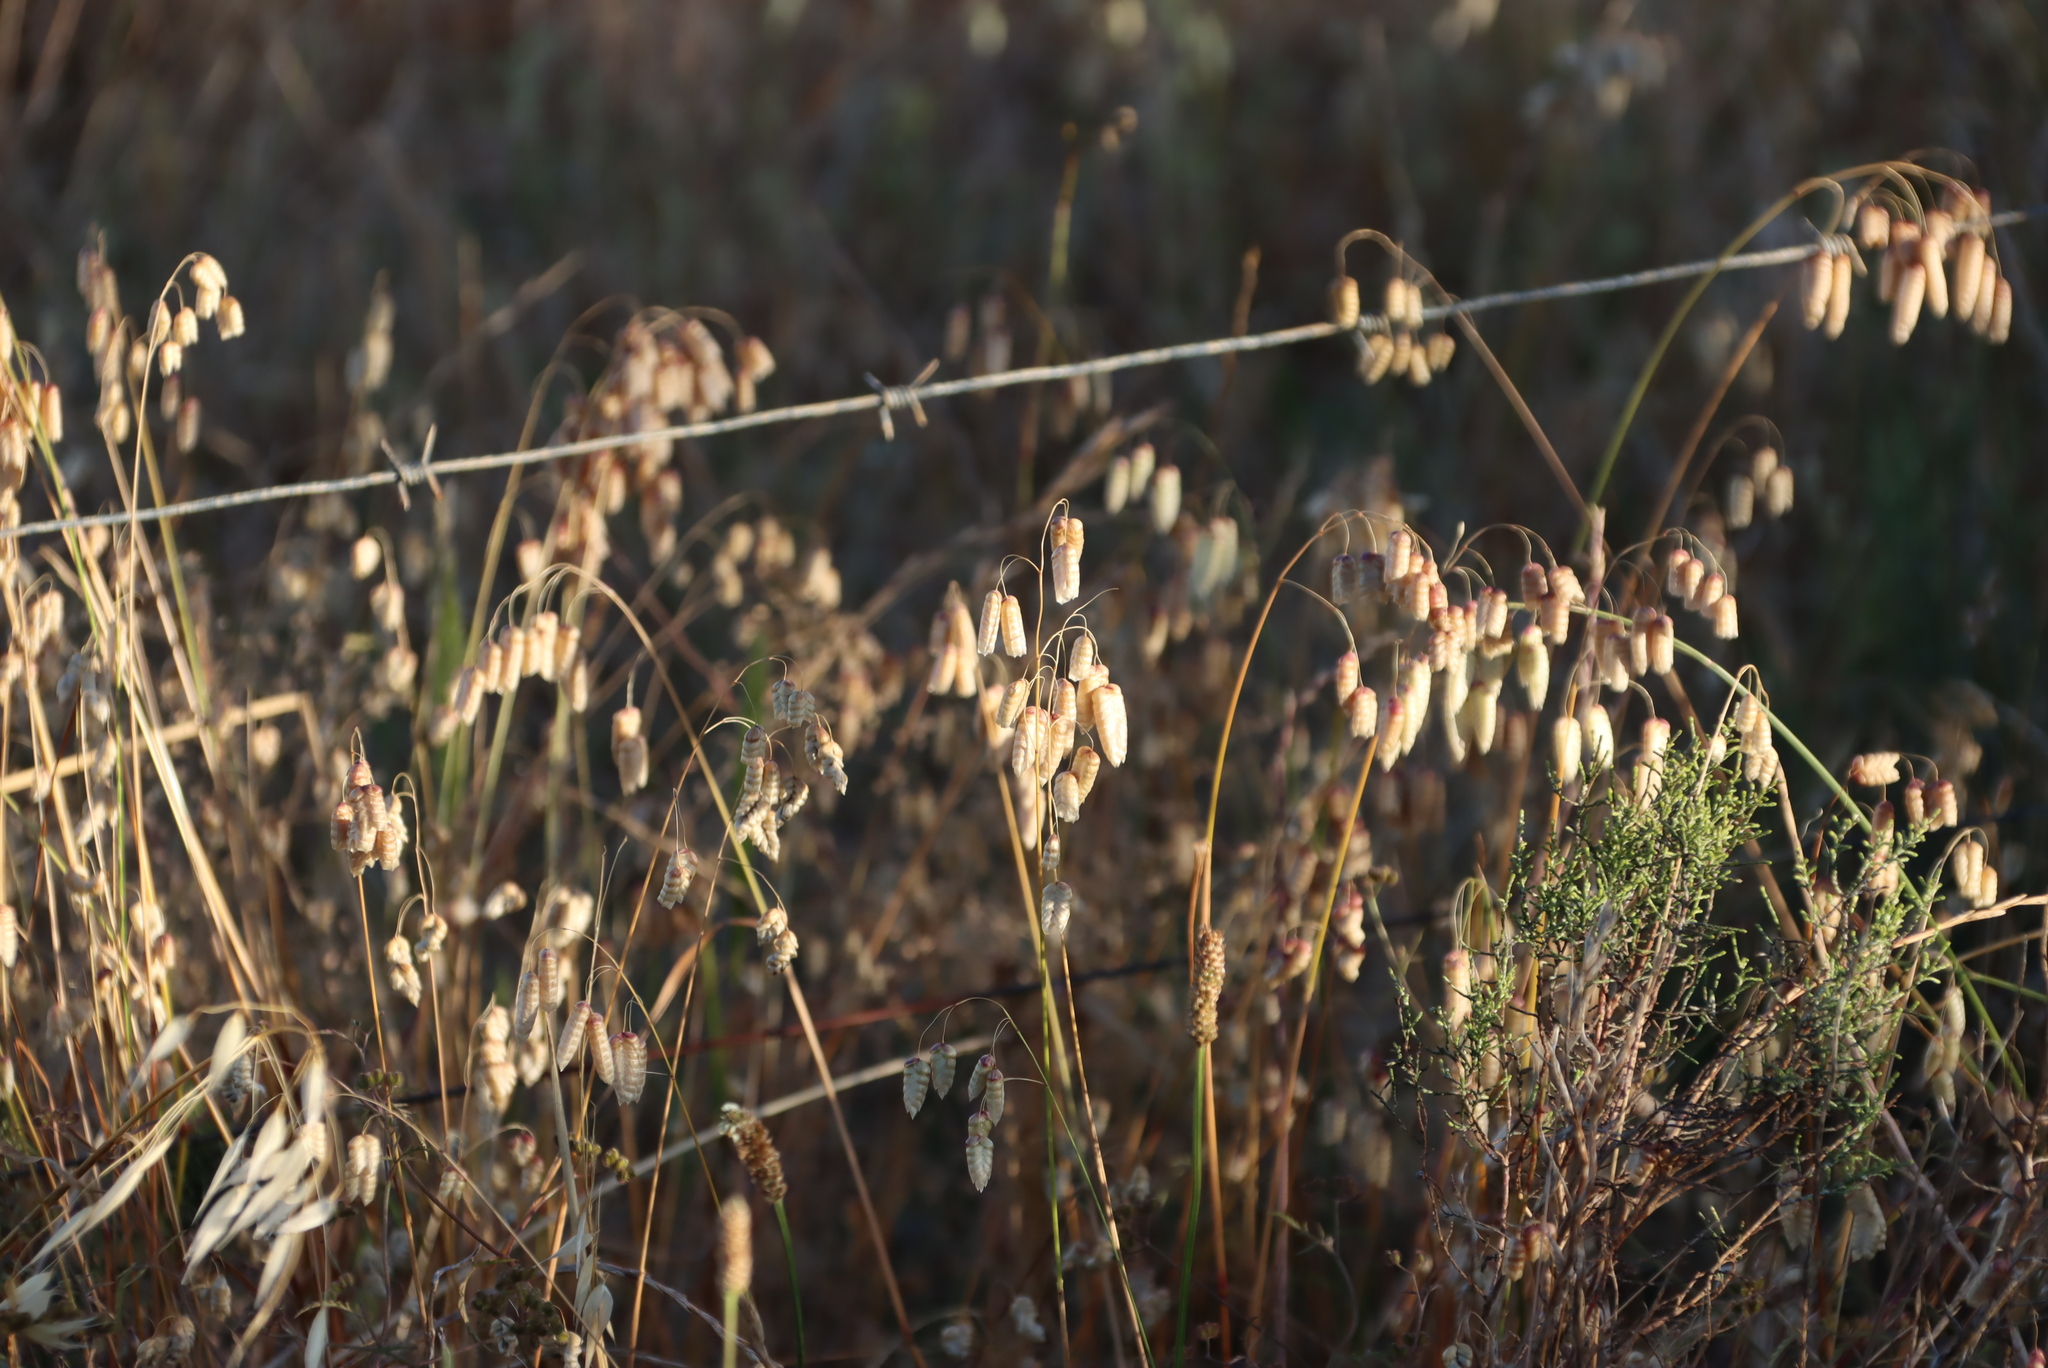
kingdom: Plantae
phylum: Tracheophyta
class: Liliopsida
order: Poales
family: Poaceae
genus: Briza
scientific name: Briza maxima
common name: Big quakinggrass
